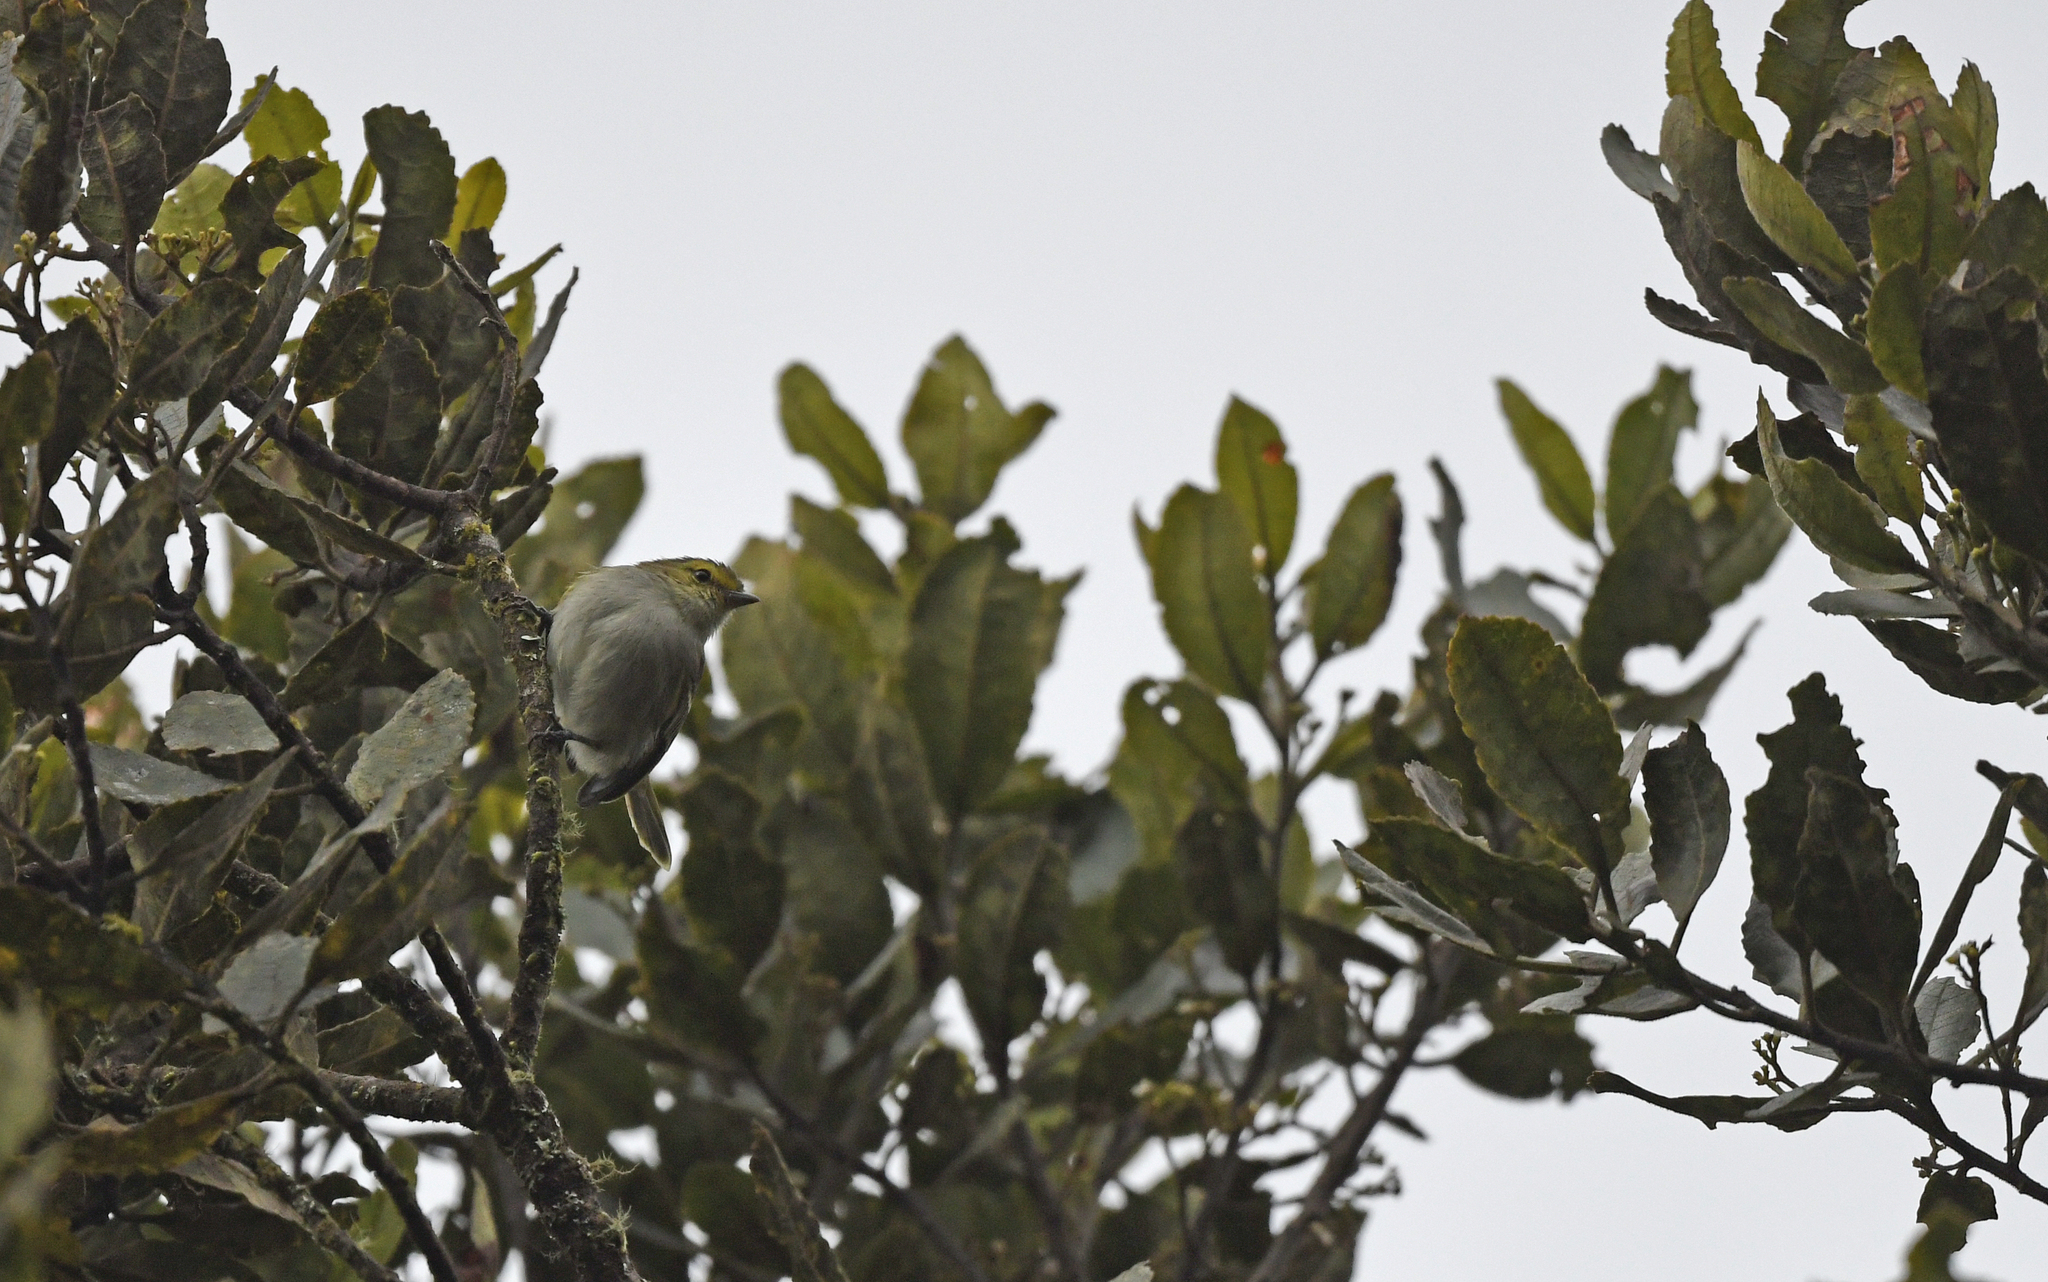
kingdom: Animalia
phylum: Chordata
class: Aves
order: Passeriformes
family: Tyrannidae
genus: Zimmerius
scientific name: Zimmerius chrysops
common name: Golden-faced tyrannulet
